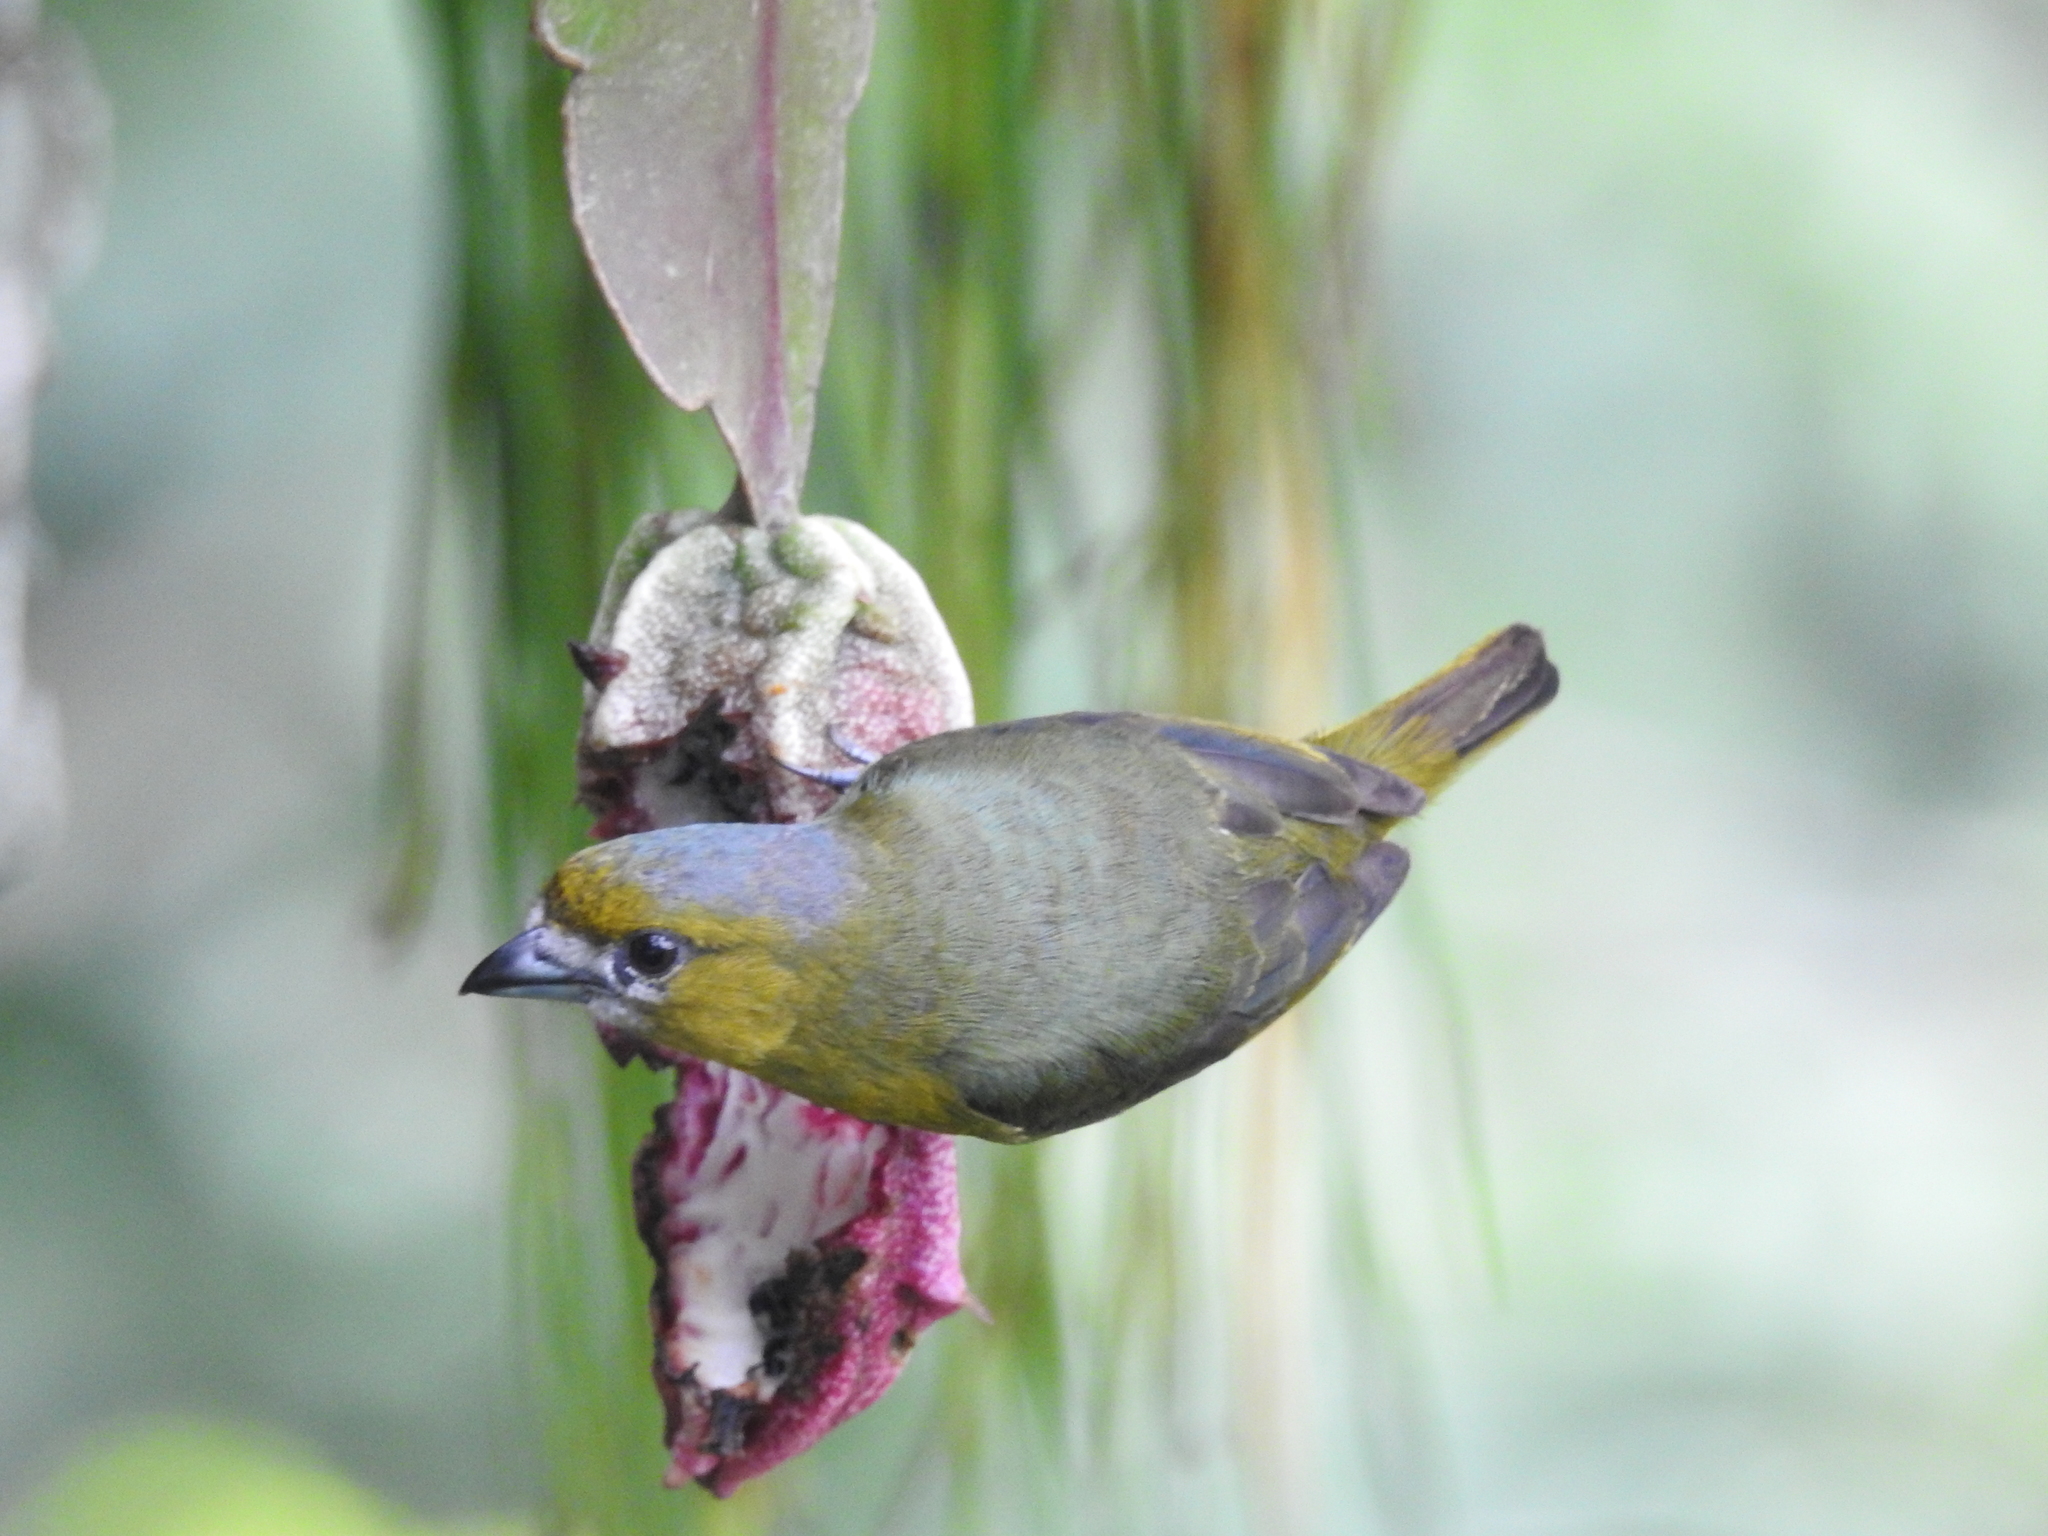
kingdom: Animalia
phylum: Chordata
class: Aves
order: Passeriformes
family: Fringillidae
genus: Euphonia
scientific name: Euphonia chrysopasta
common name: White-lored euphonia
